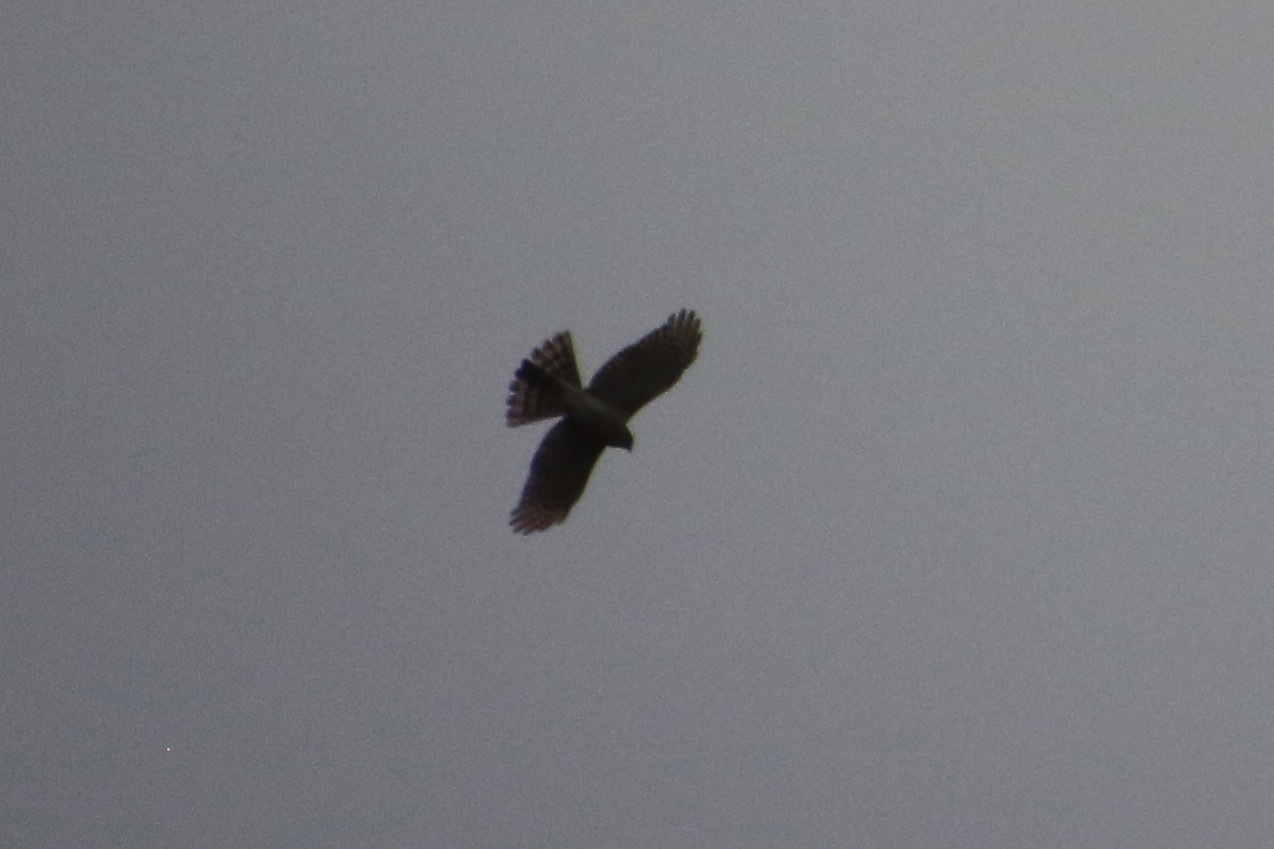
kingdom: Animalia
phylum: Chordata
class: Aves
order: Accipitriformes
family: Accipitridae
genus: Accipiter
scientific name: Accipiter striatus
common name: Sharp-shinned hawk
